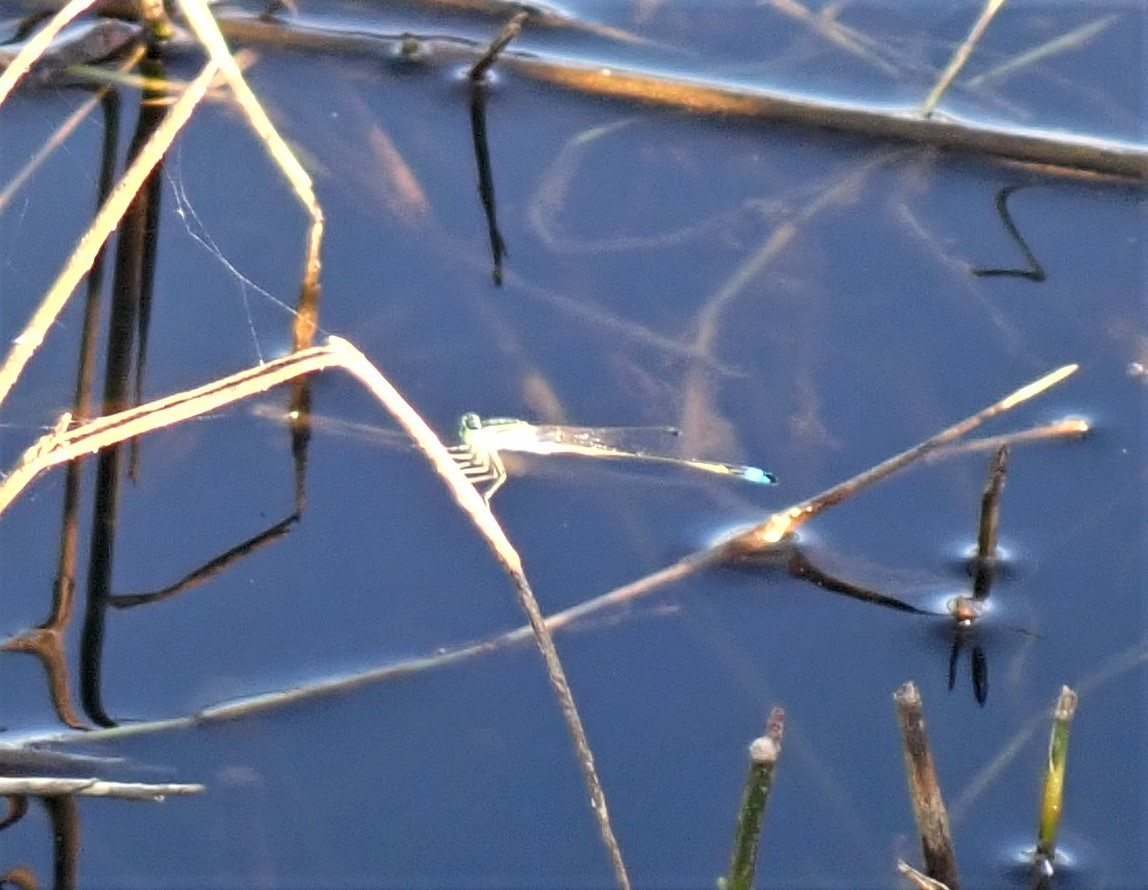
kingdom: Animalia
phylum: Arthropoda
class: Insecta
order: Odonata
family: Coenagrionidae
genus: Ischnura
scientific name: Ischnura senegalensis
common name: Tropical bluetail
